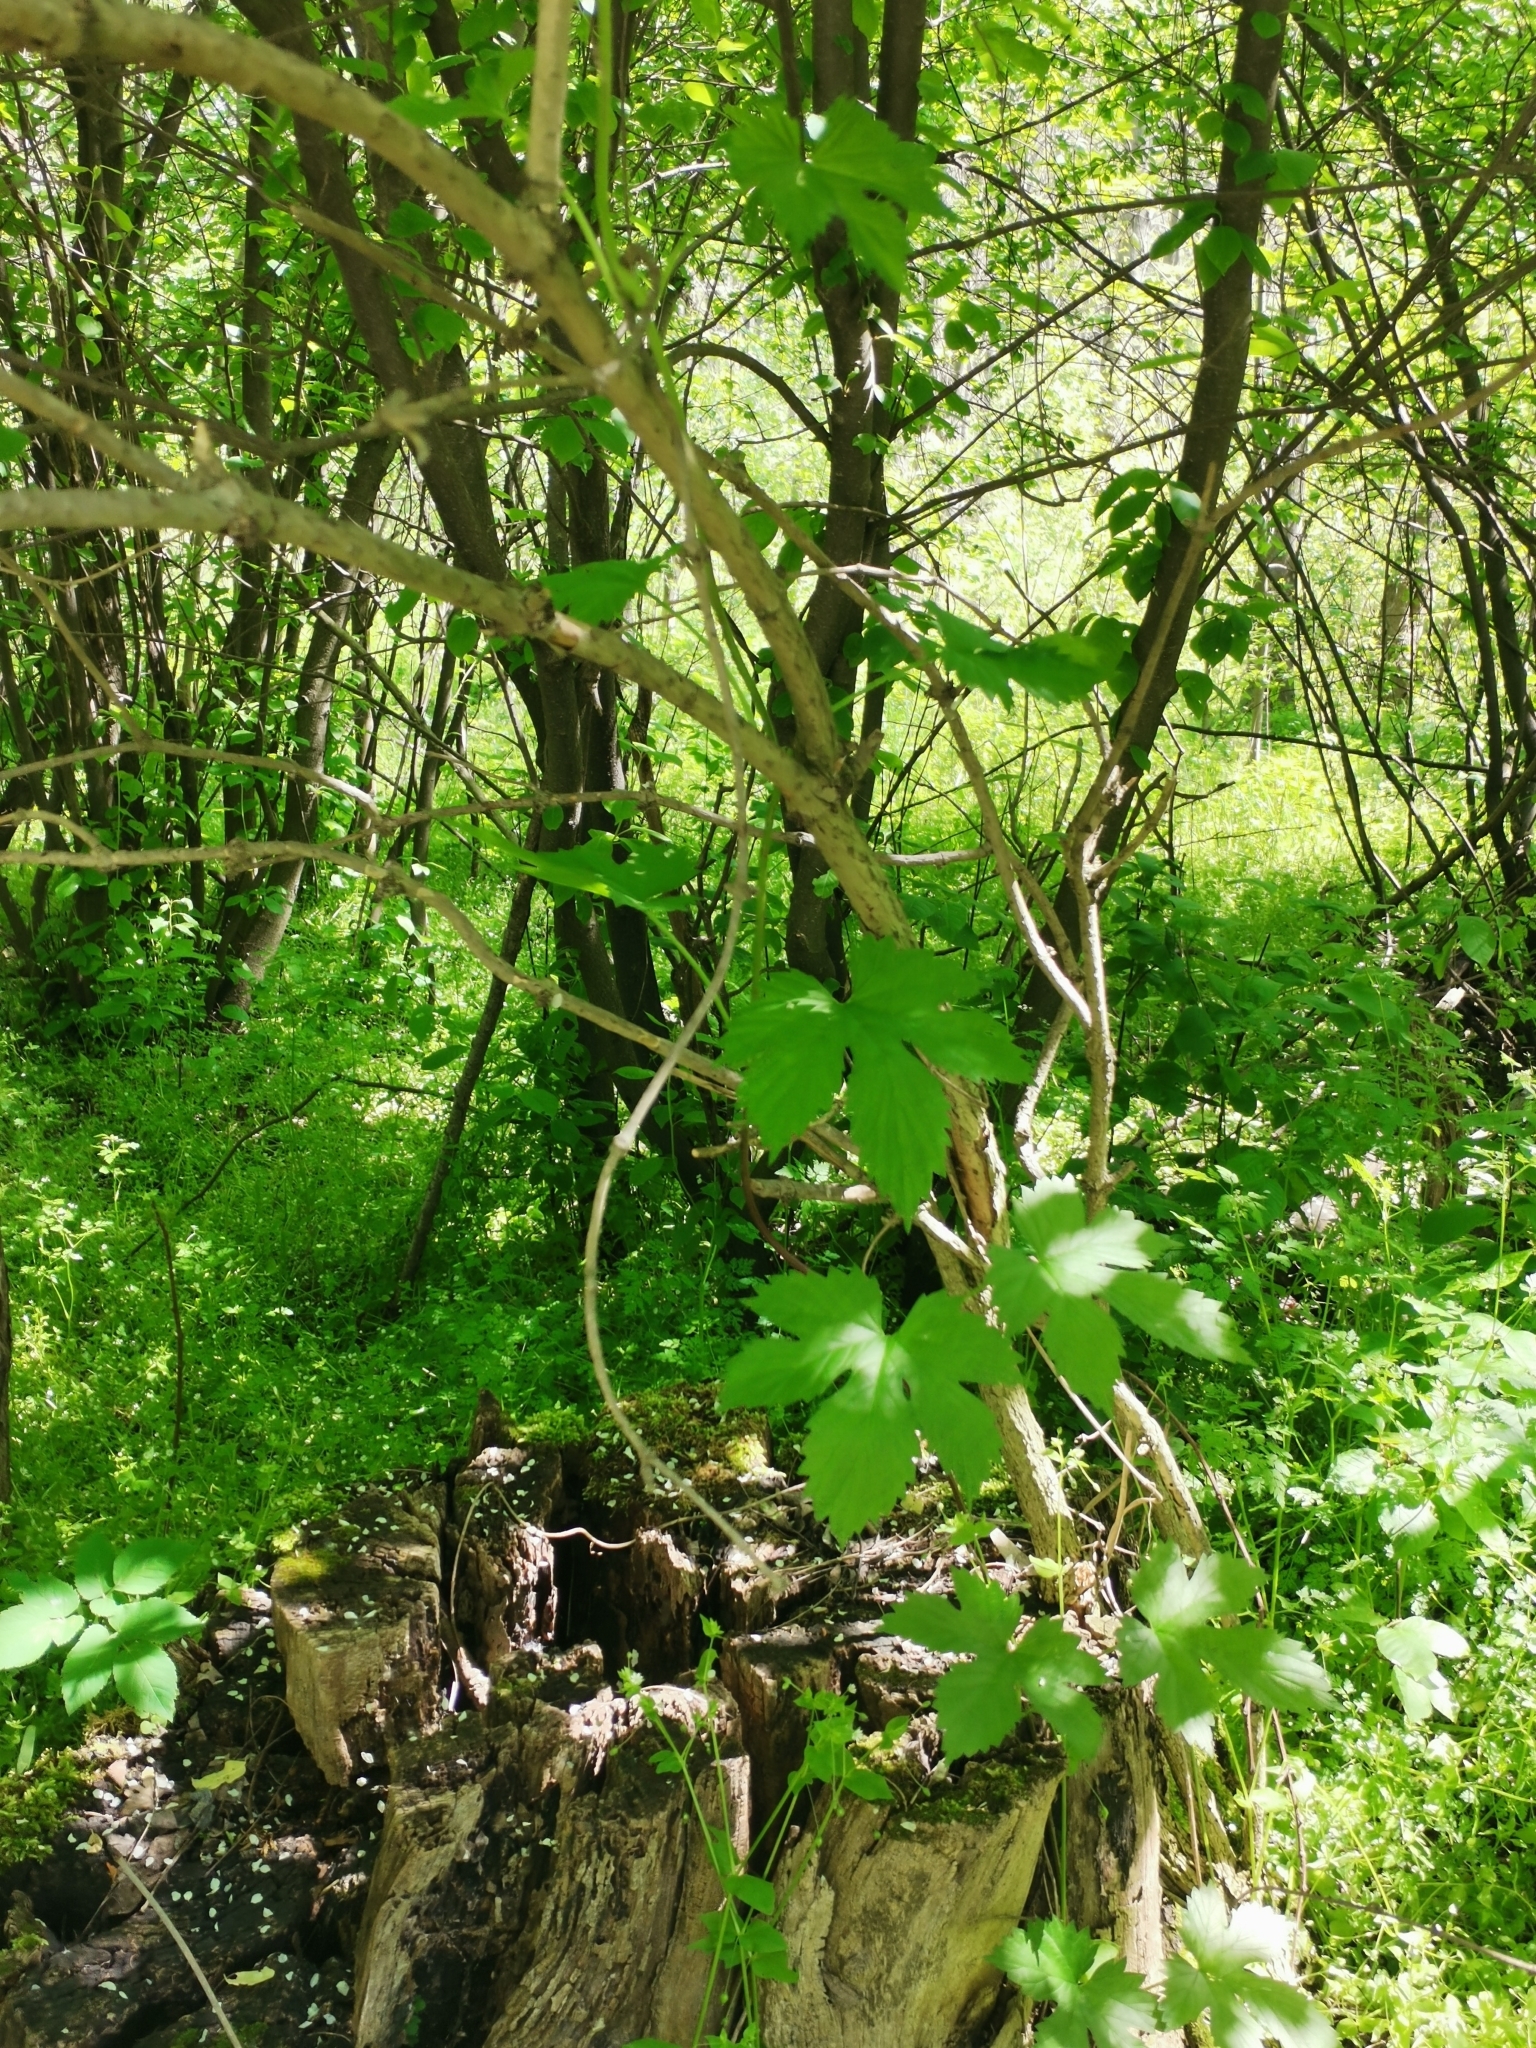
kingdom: Plantae
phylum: Tracheophyta
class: Magnoliopsida
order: Rosales
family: Cannabaceae
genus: Humulus
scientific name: Humulus lupulus
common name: Hop
